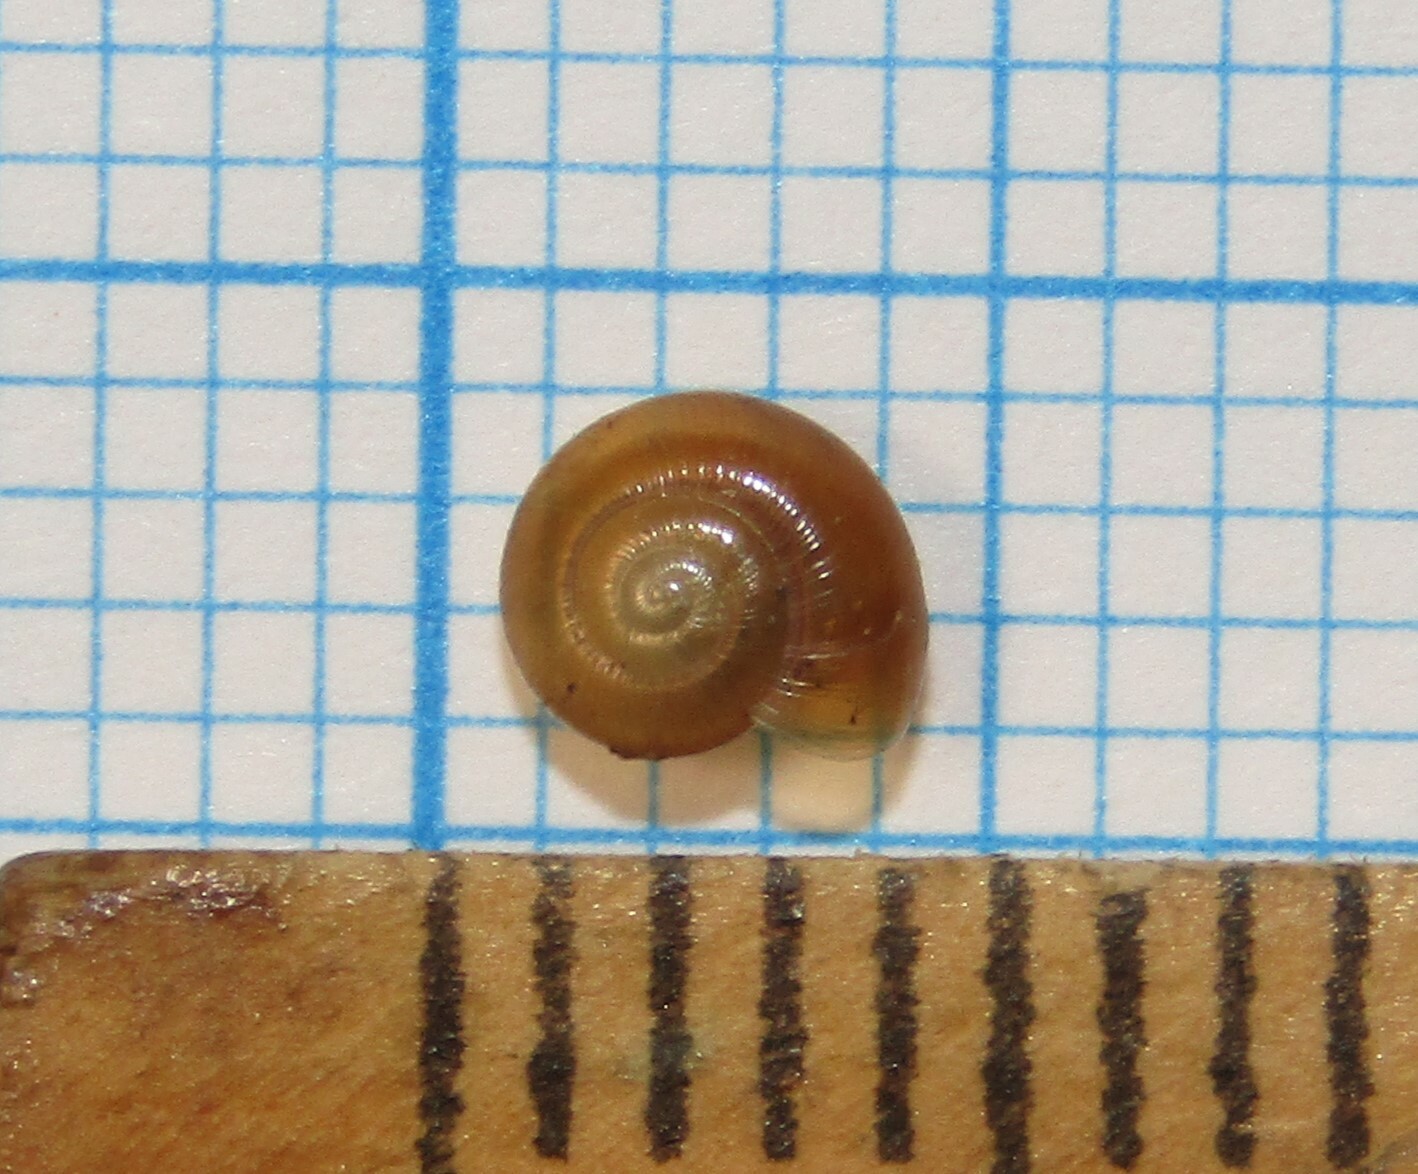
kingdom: Animalia
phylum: Mollusca
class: Gastropoda
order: Stylommatophora
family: Gastrodontidae
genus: Perpolita
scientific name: Perpolita hammonis
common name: Rayed glass snail
